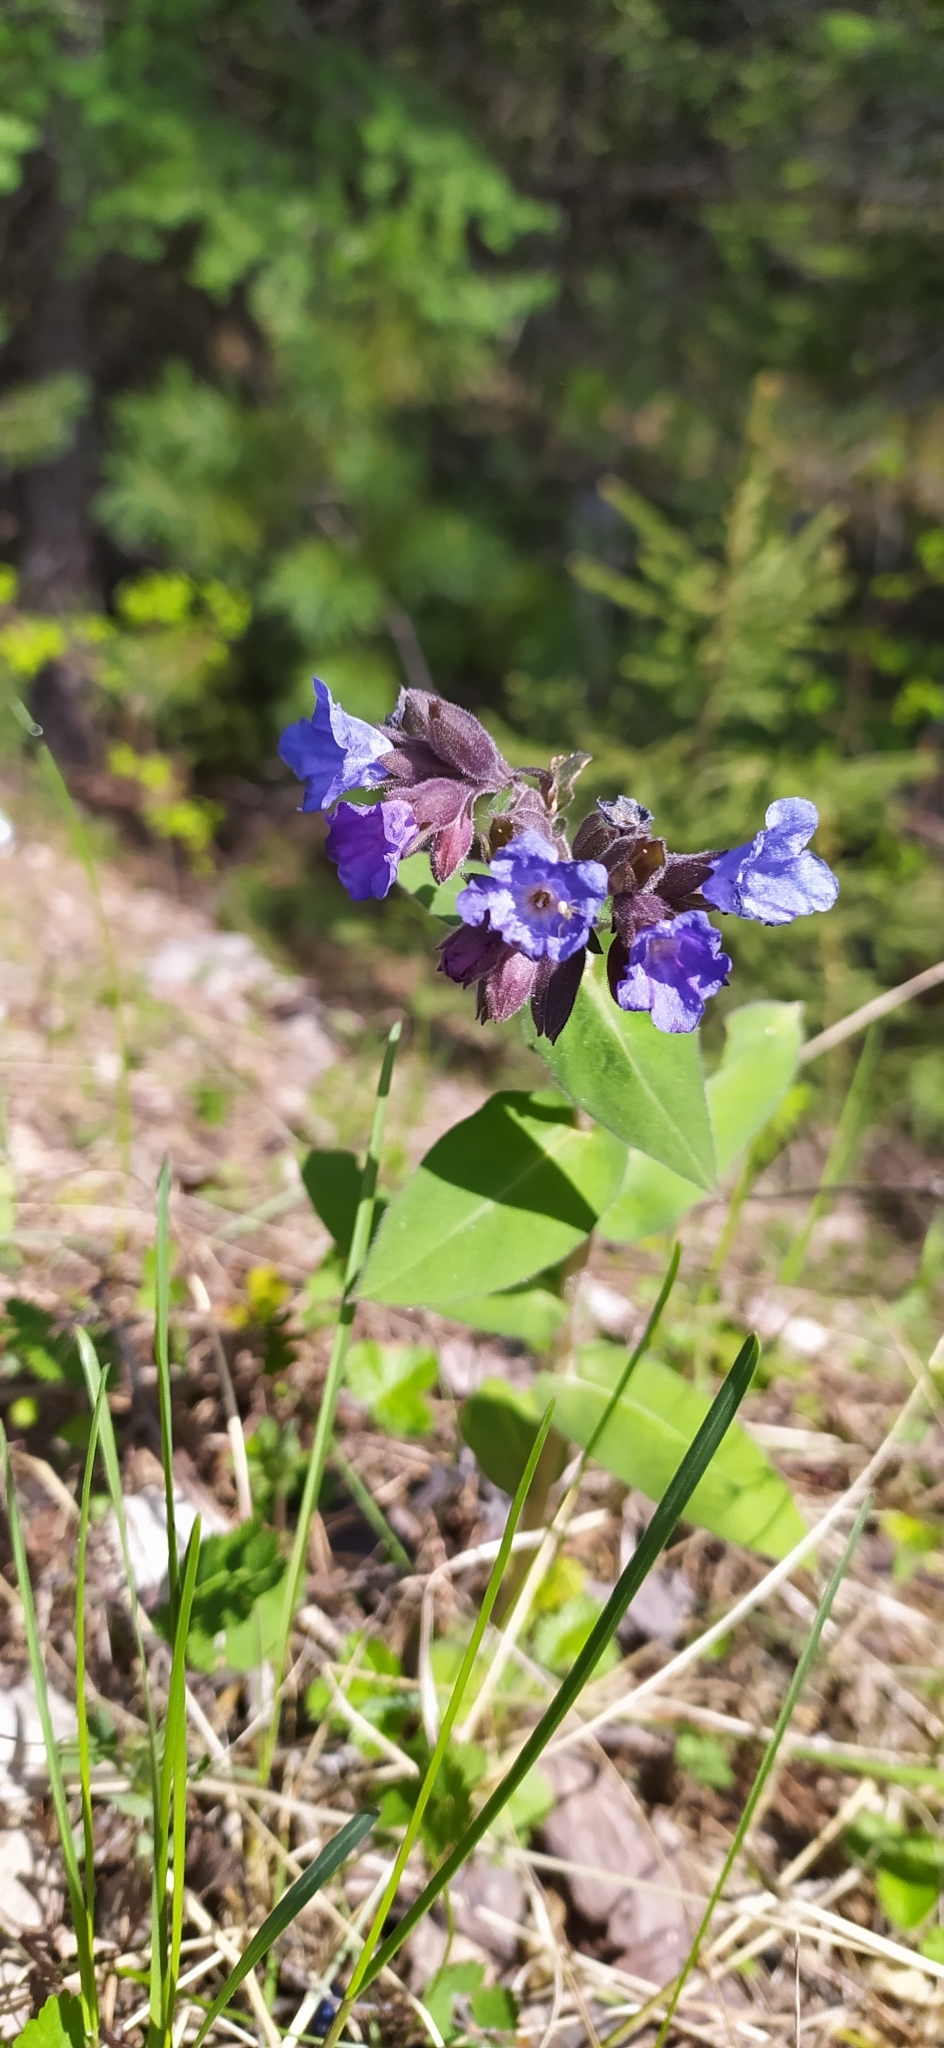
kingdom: Plantae
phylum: Tracheophyta
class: Magnoliopsida
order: Boraginales
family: Boraginaceae
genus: Pulmonaria
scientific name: Pulmonaria mollis
